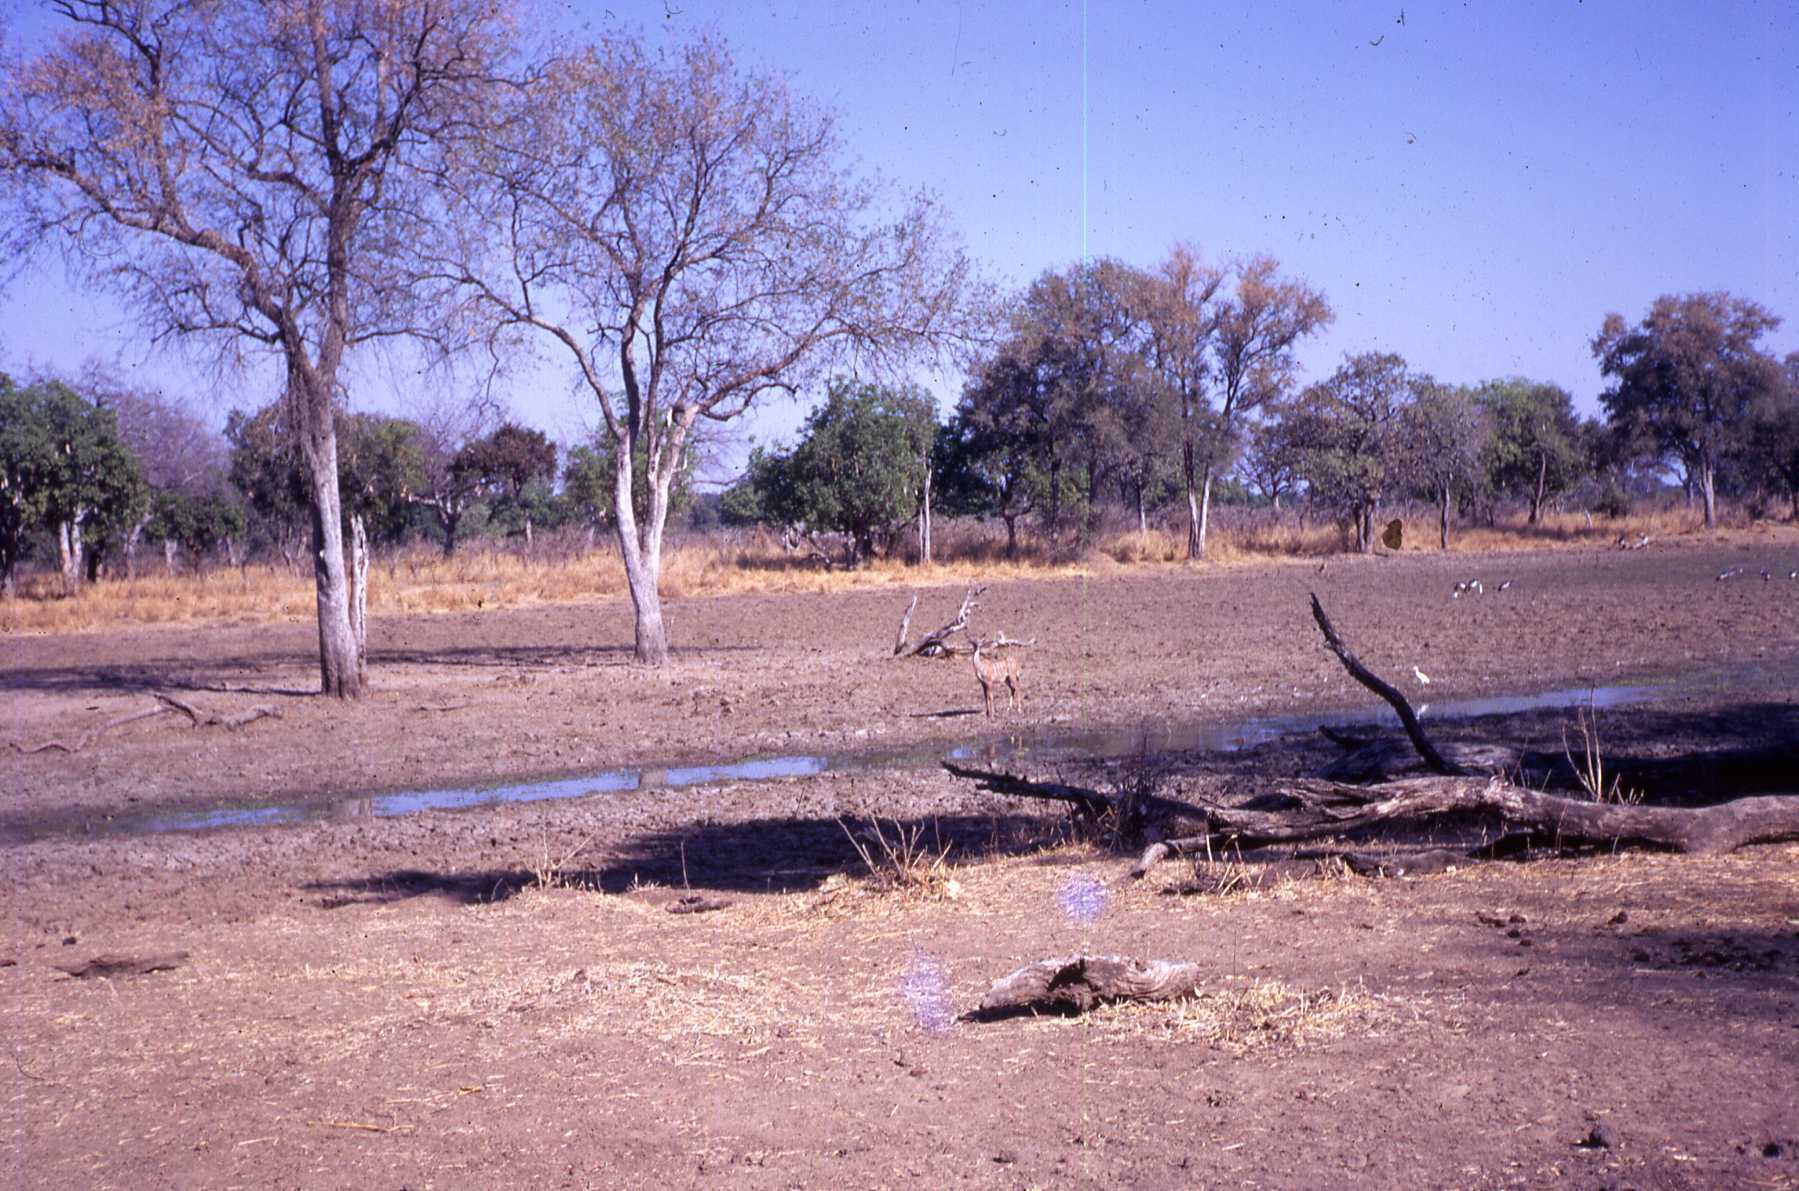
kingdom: Animalia
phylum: Chordata
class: Mammalia
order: Artiodactyla
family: Bovidae
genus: Tragelaphus
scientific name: Tragelaphus strepsiceros
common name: Greater kudu
